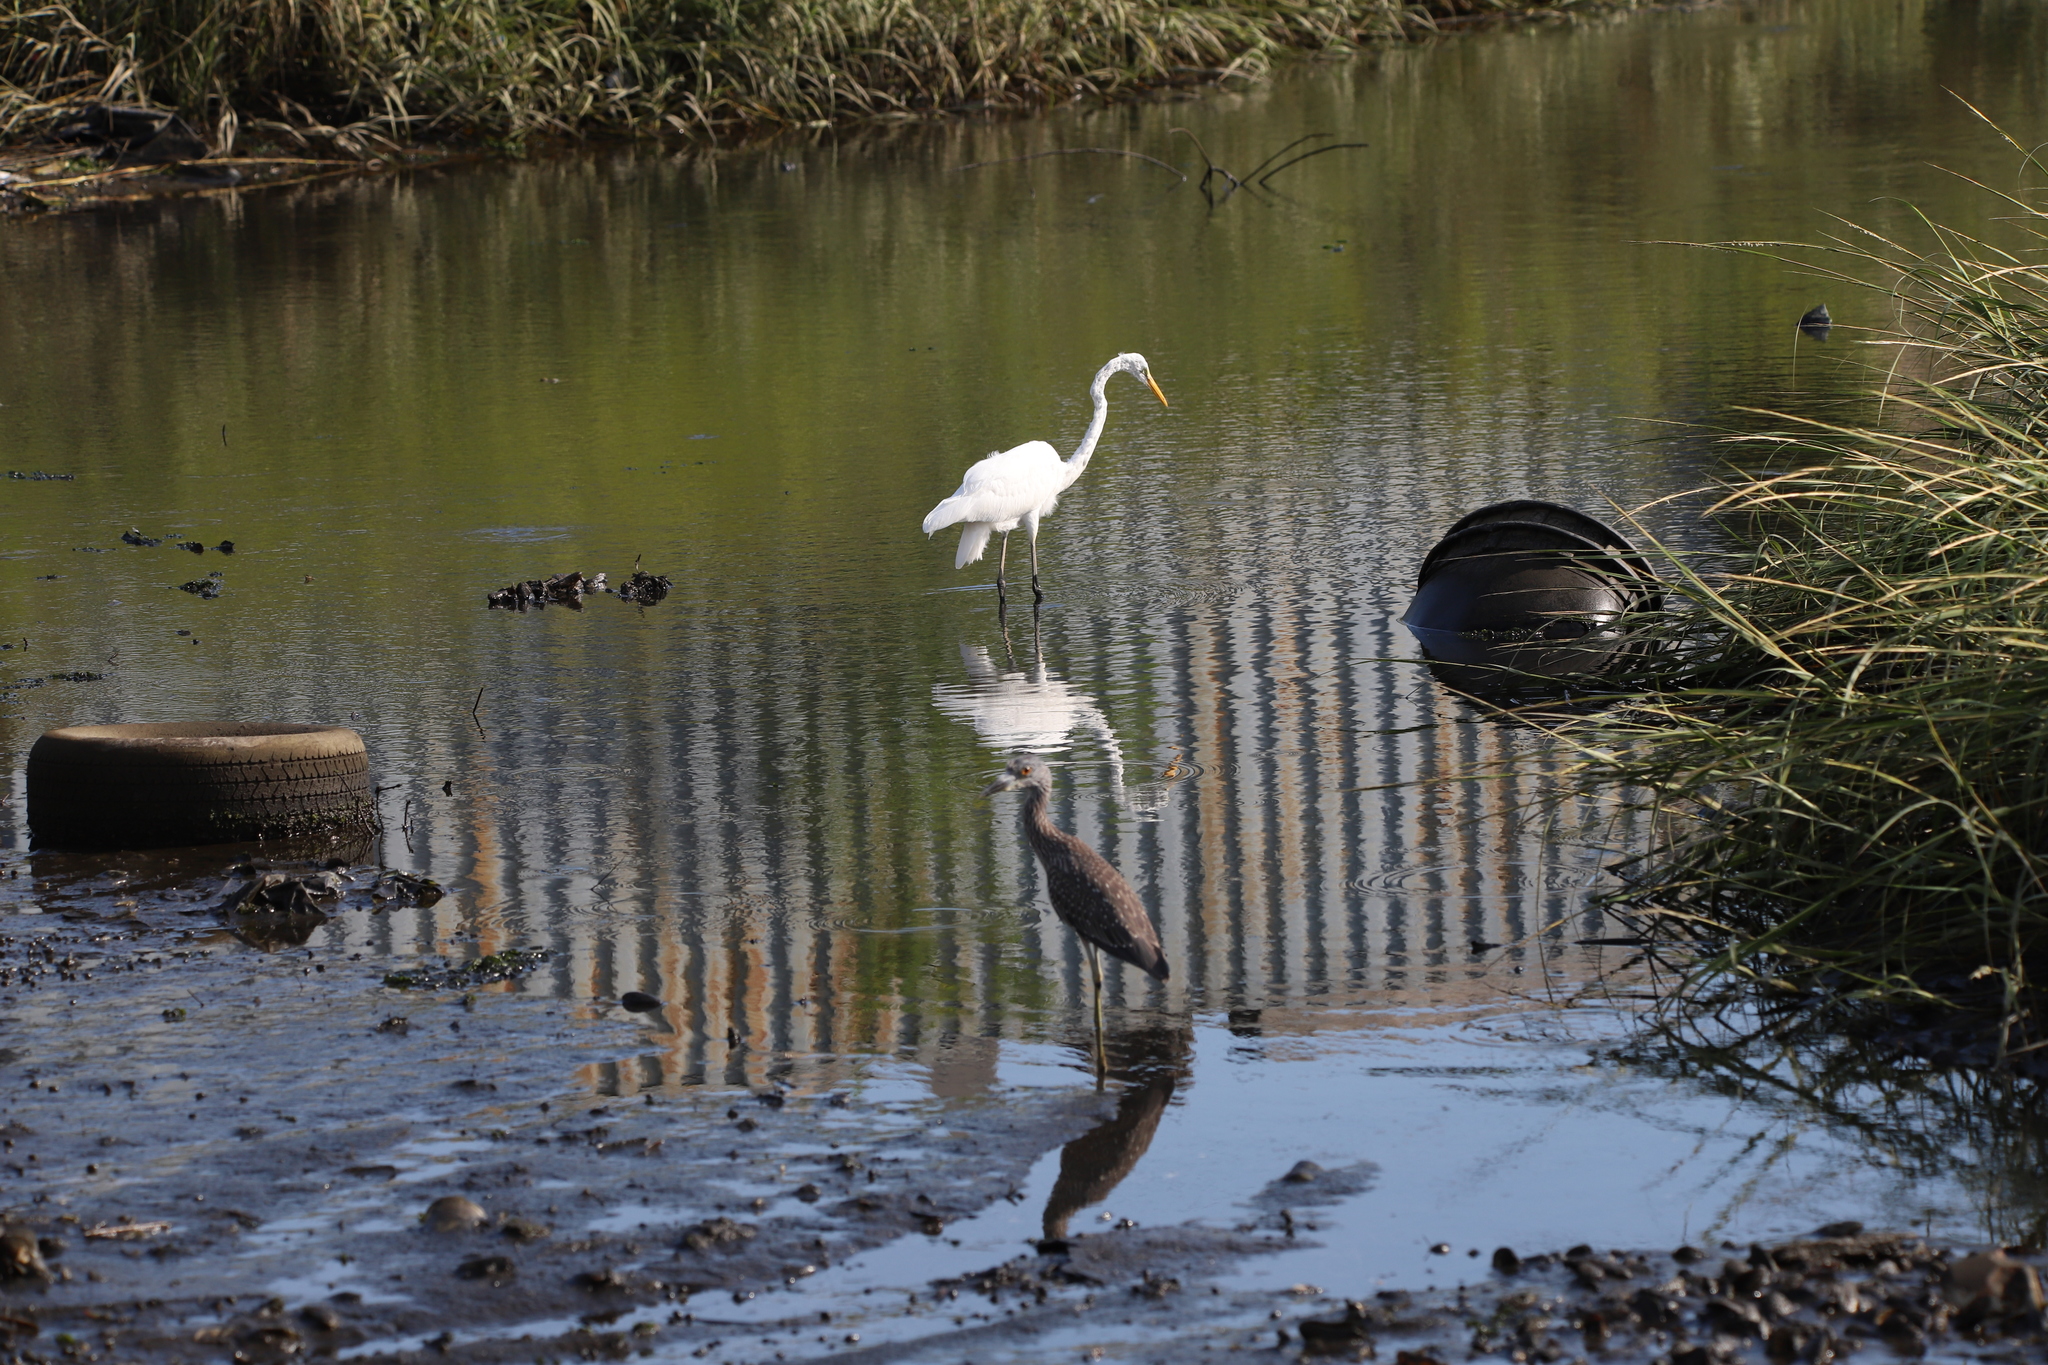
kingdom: Animalia
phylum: Chordata
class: Aves
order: Pelecaniformes
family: Ardeidae
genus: Ardea
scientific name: Ardea alba
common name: Great egret
